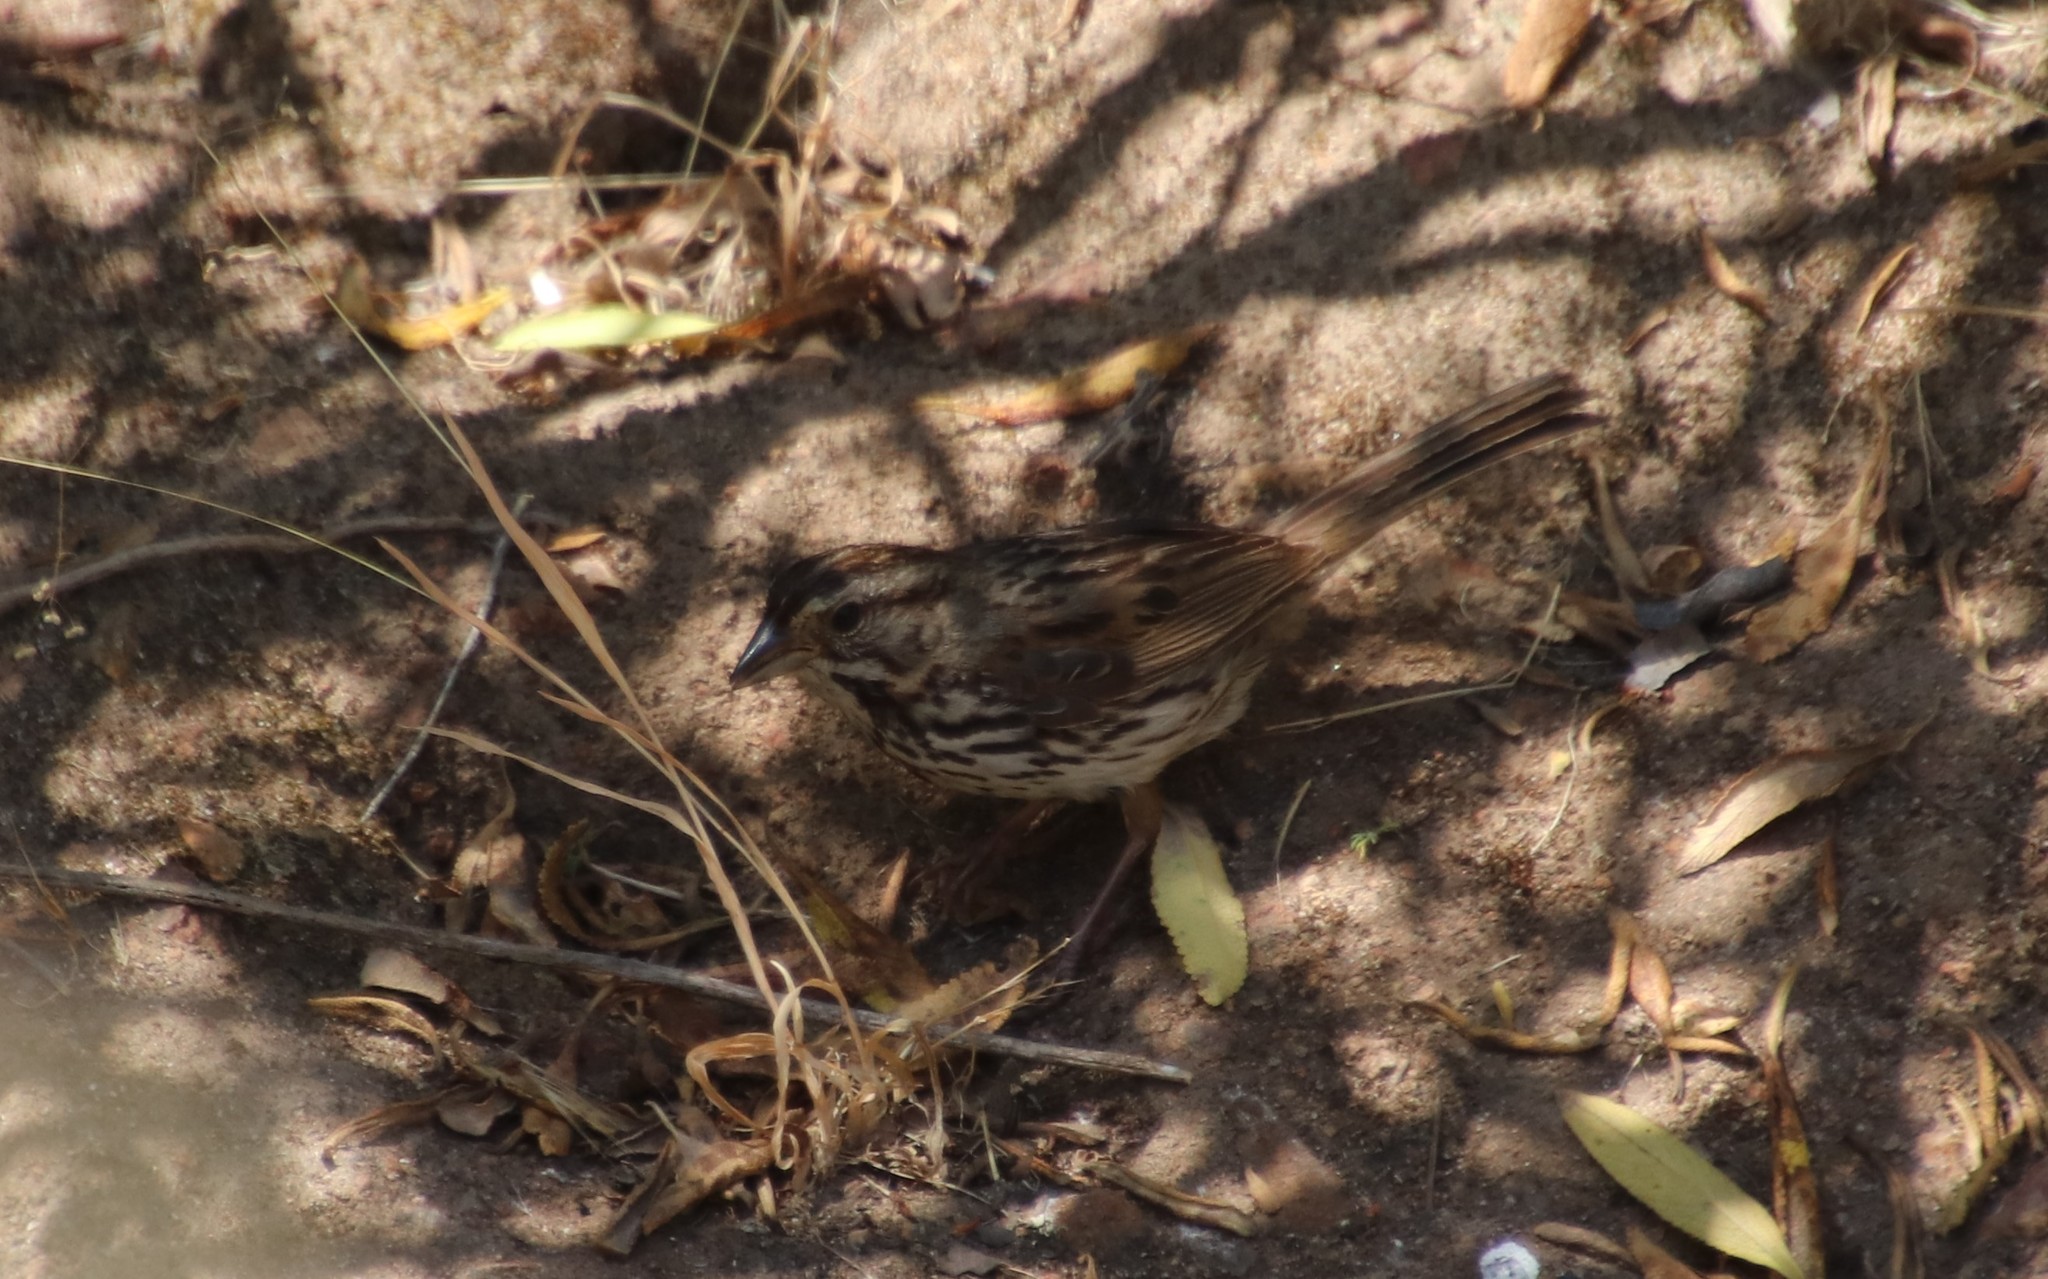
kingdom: Animalia
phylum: Chordata
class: Aves
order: Passeriformes
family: Passerellidae
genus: Melospiza
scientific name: Melospiza melodia
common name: Song sparrow
